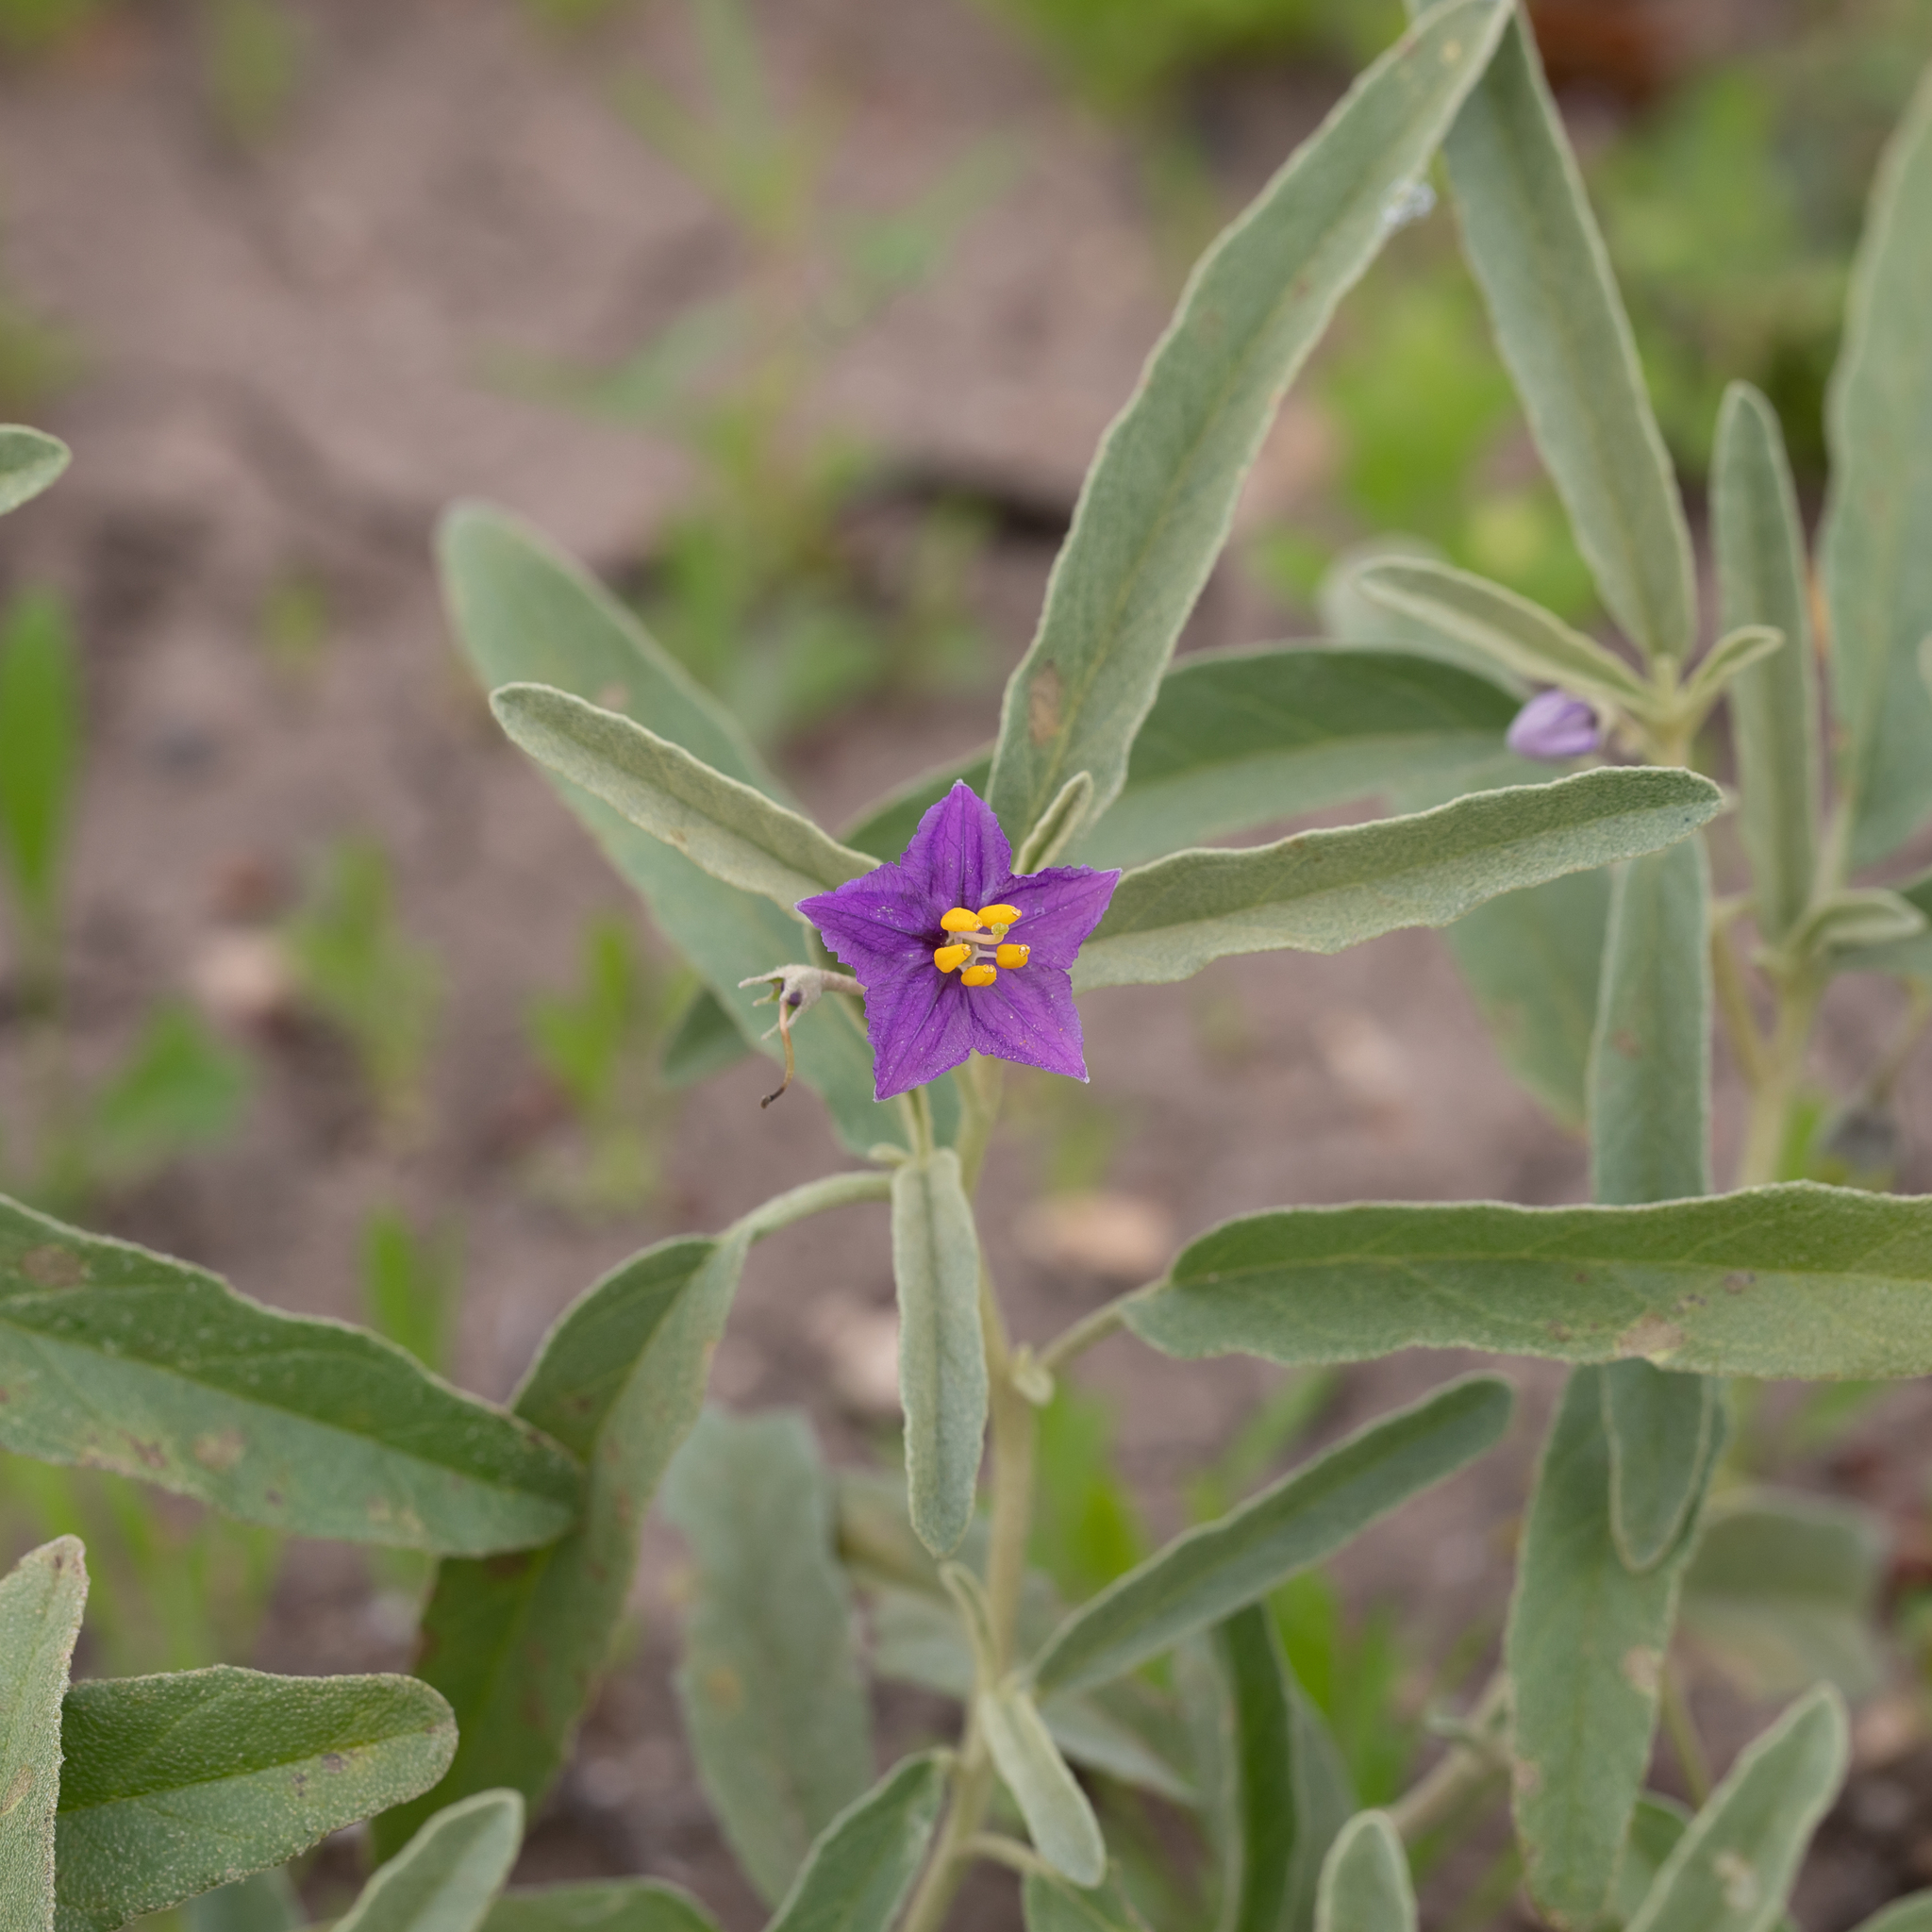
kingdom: Plantae
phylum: Tracheophyta
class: Magnoliopsida
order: Solanales
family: Solanaceae
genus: Solanum
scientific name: Solanum esuriale
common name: Wild tomato
